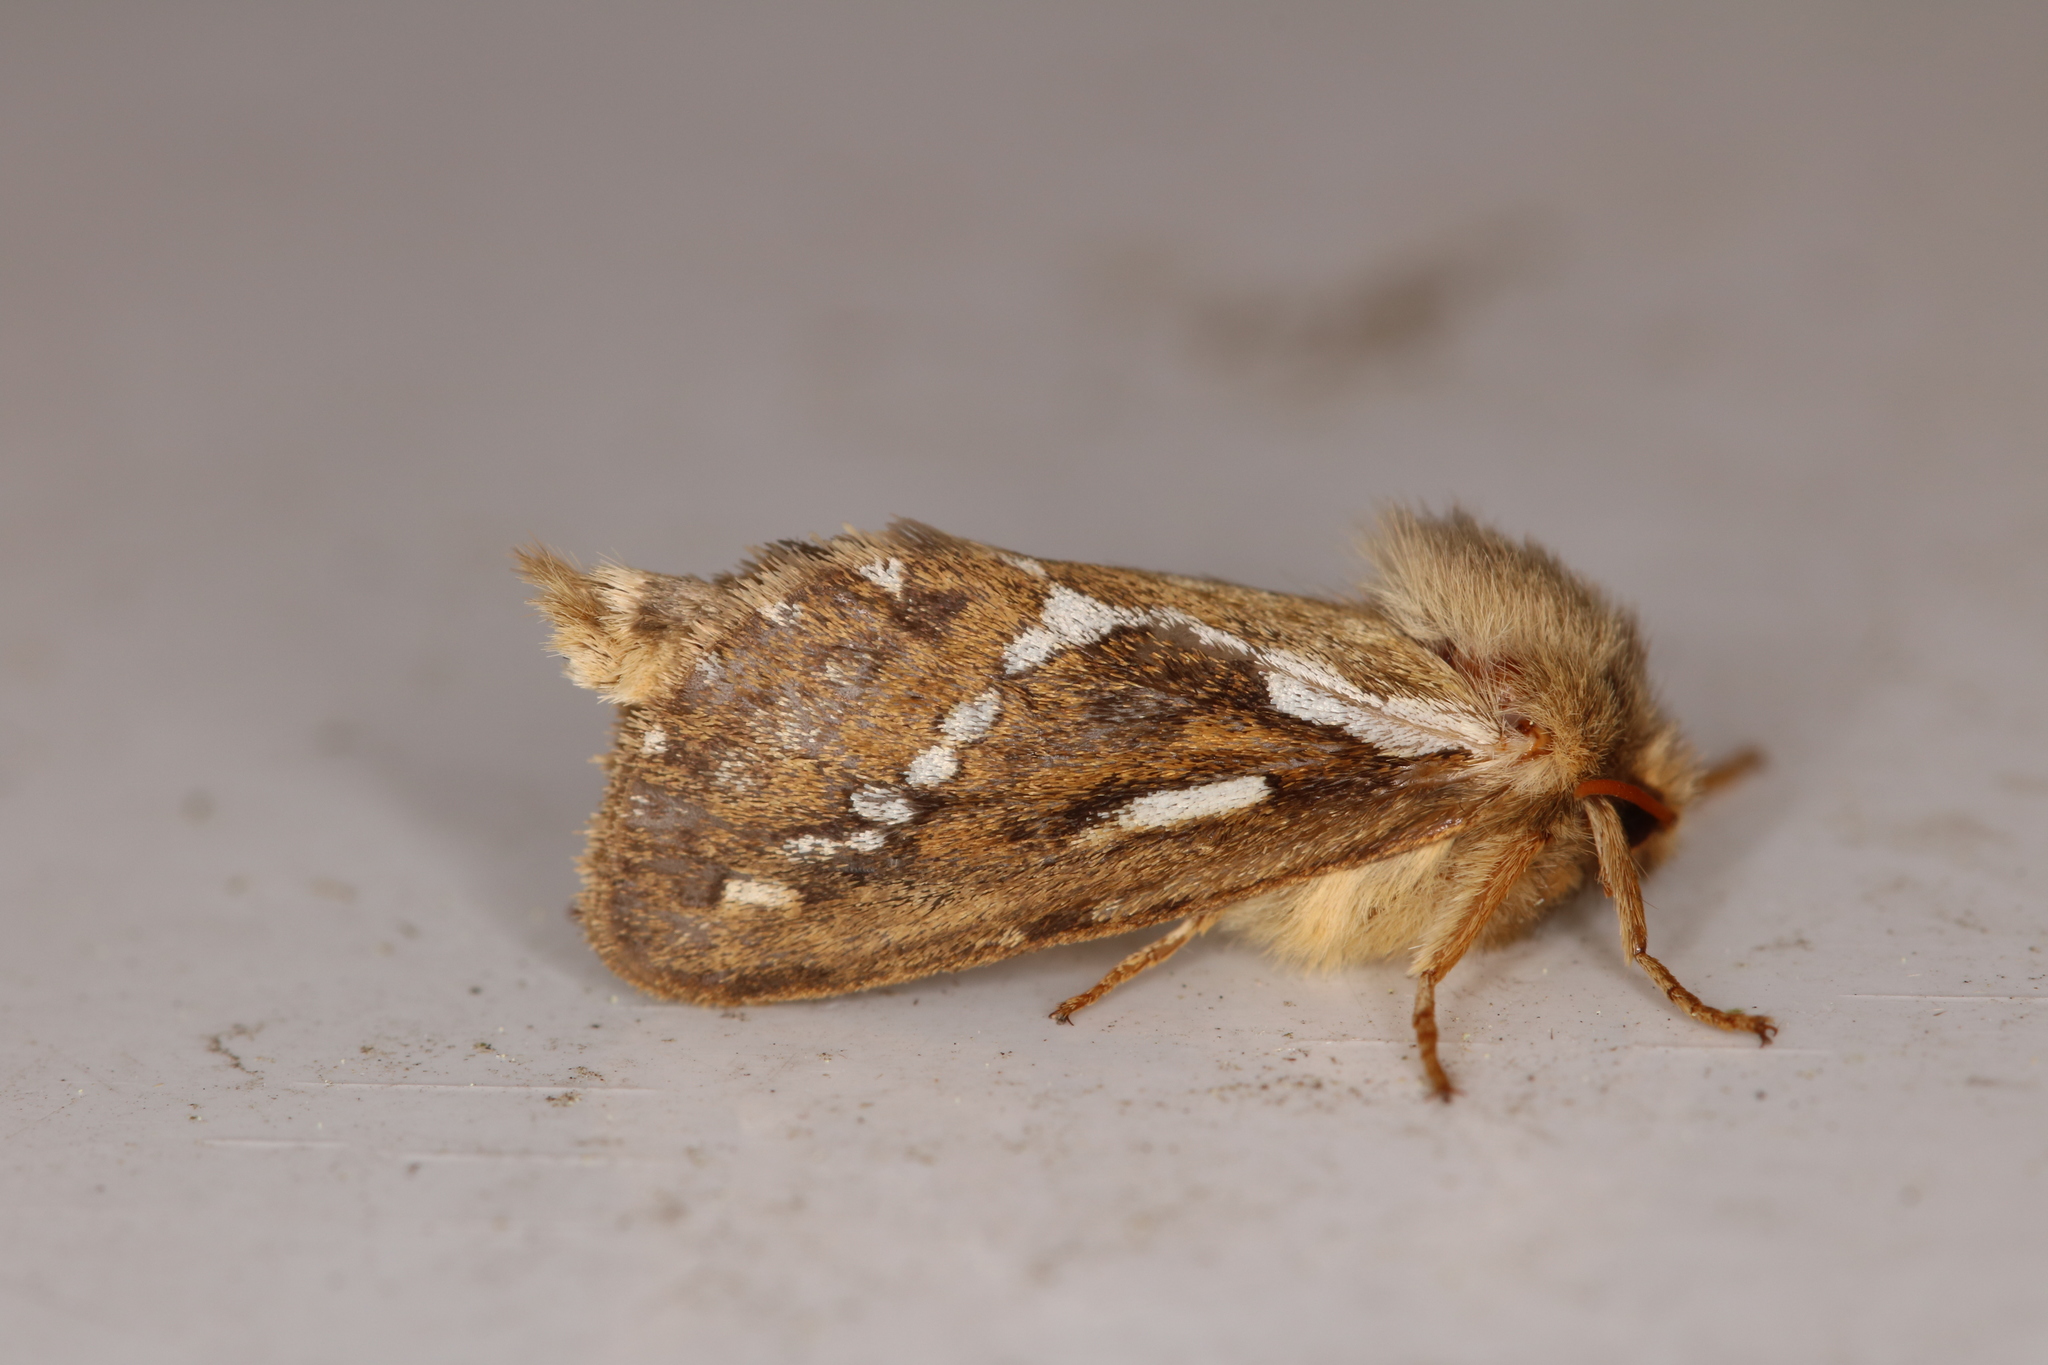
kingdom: Animalia
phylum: Arthropoda
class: Insecta
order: Lepidoptera
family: Hepialidae
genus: Korscheltellus
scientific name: Korscheltellus lupulina
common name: Common swift
